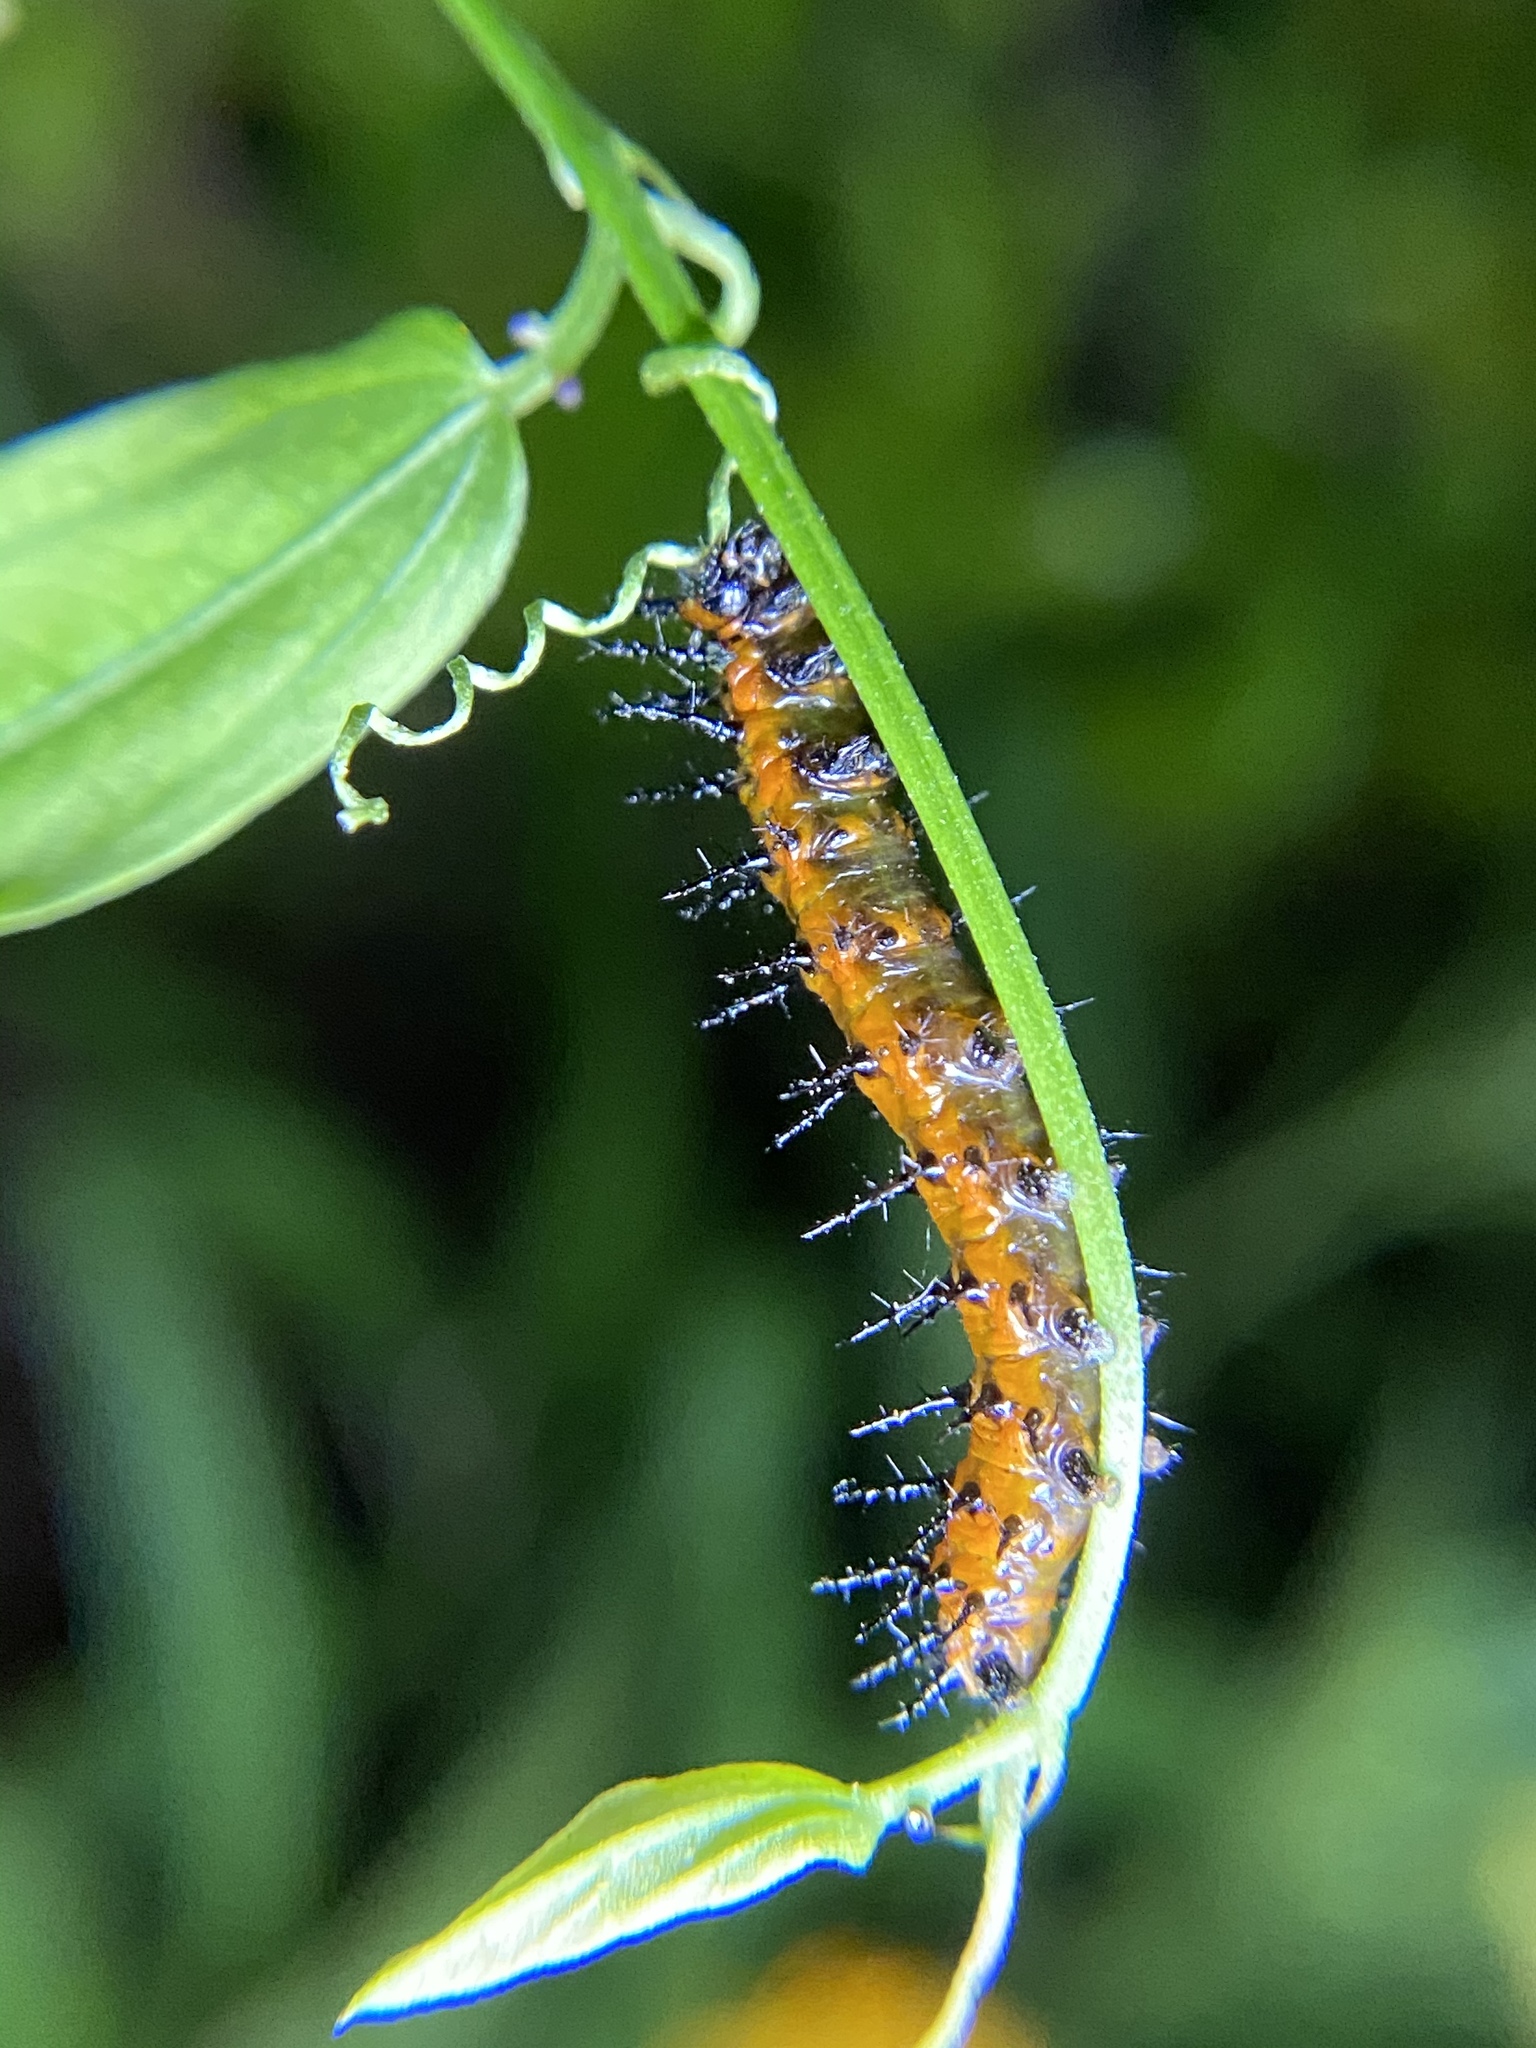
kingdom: Animalia
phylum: Arthropoda
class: Insecta
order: Lepidoptera
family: Nymphalidae
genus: Dione
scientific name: Dione vanillae
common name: Gulf fritillary
